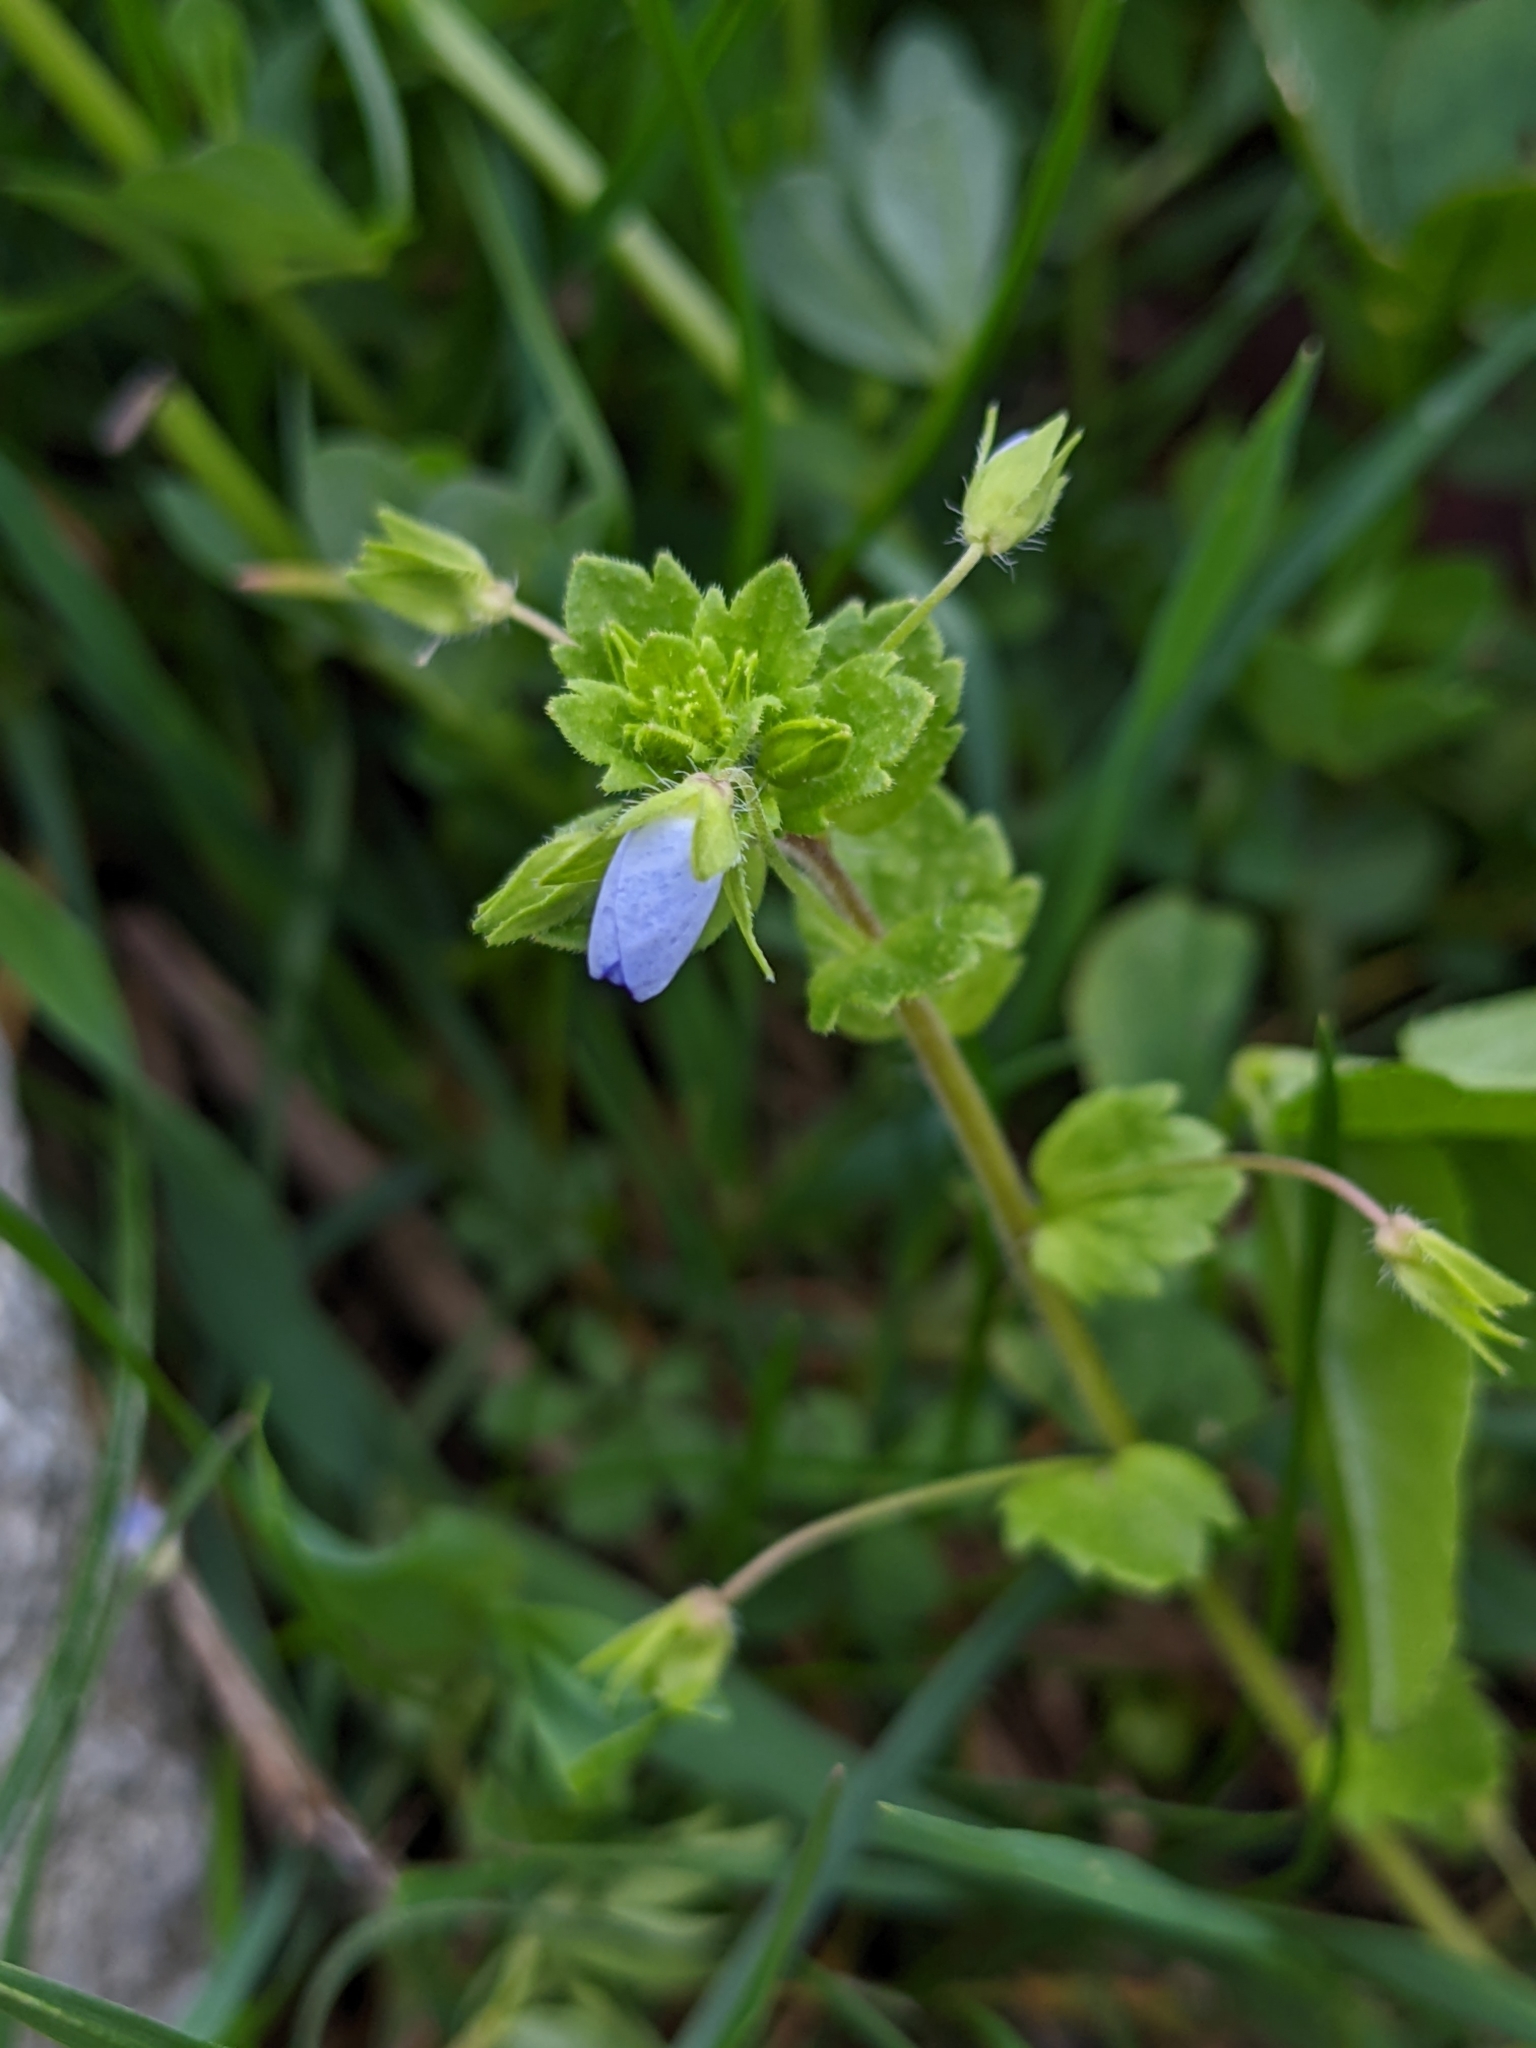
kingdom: Plantae
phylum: Tracheophyta
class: Magnoliopsida
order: Lamiales
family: Plantaginaceae
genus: Veronica
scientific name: Veronica persica
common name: Common field-speedwell
